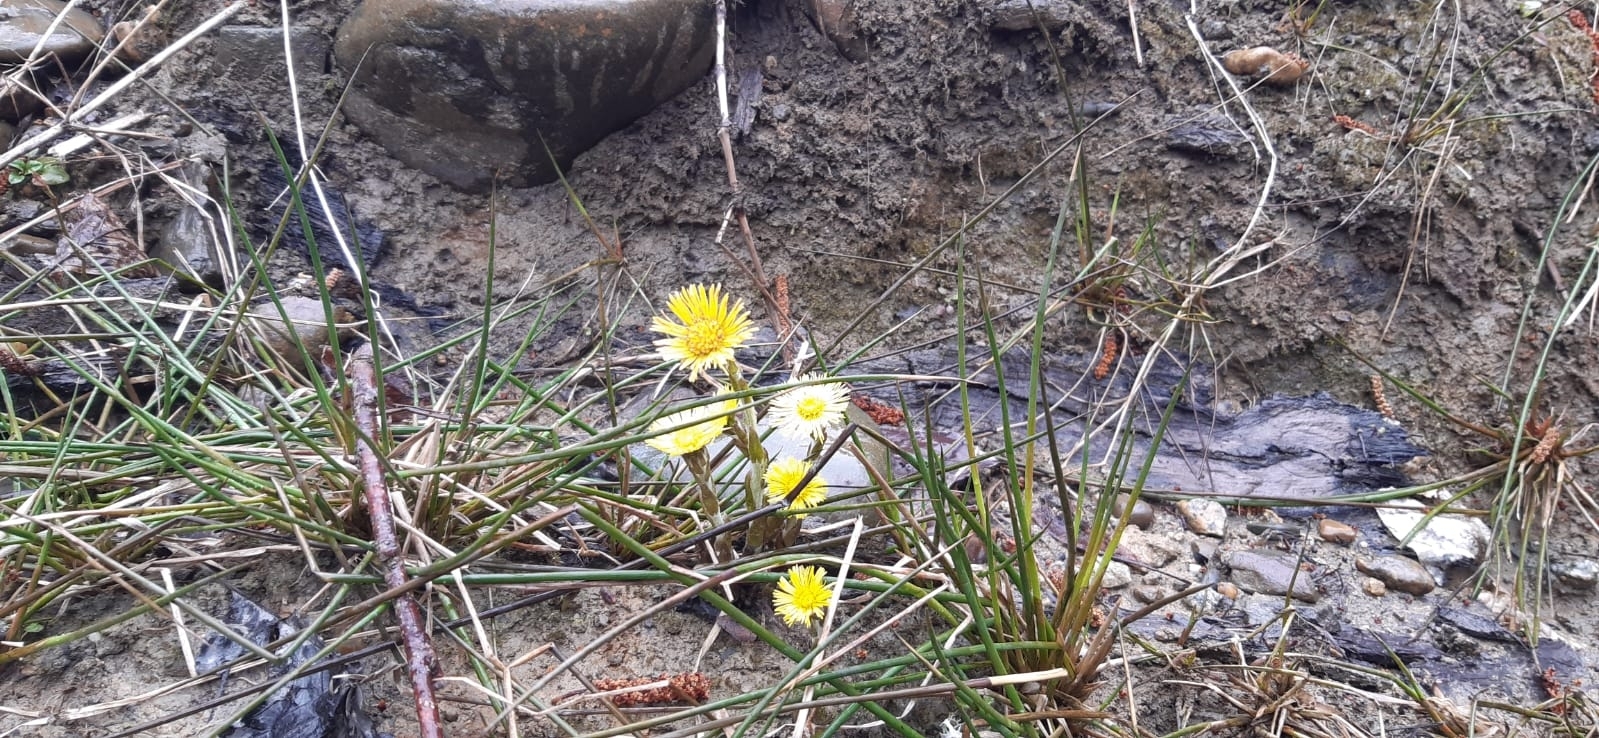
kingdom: Plantae
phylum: Tracheophyta
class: Magnoliopsida
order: Asterales
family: Asteraceae
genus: Tussilago
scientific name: Tussilago farfara
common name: Coltsfoot
